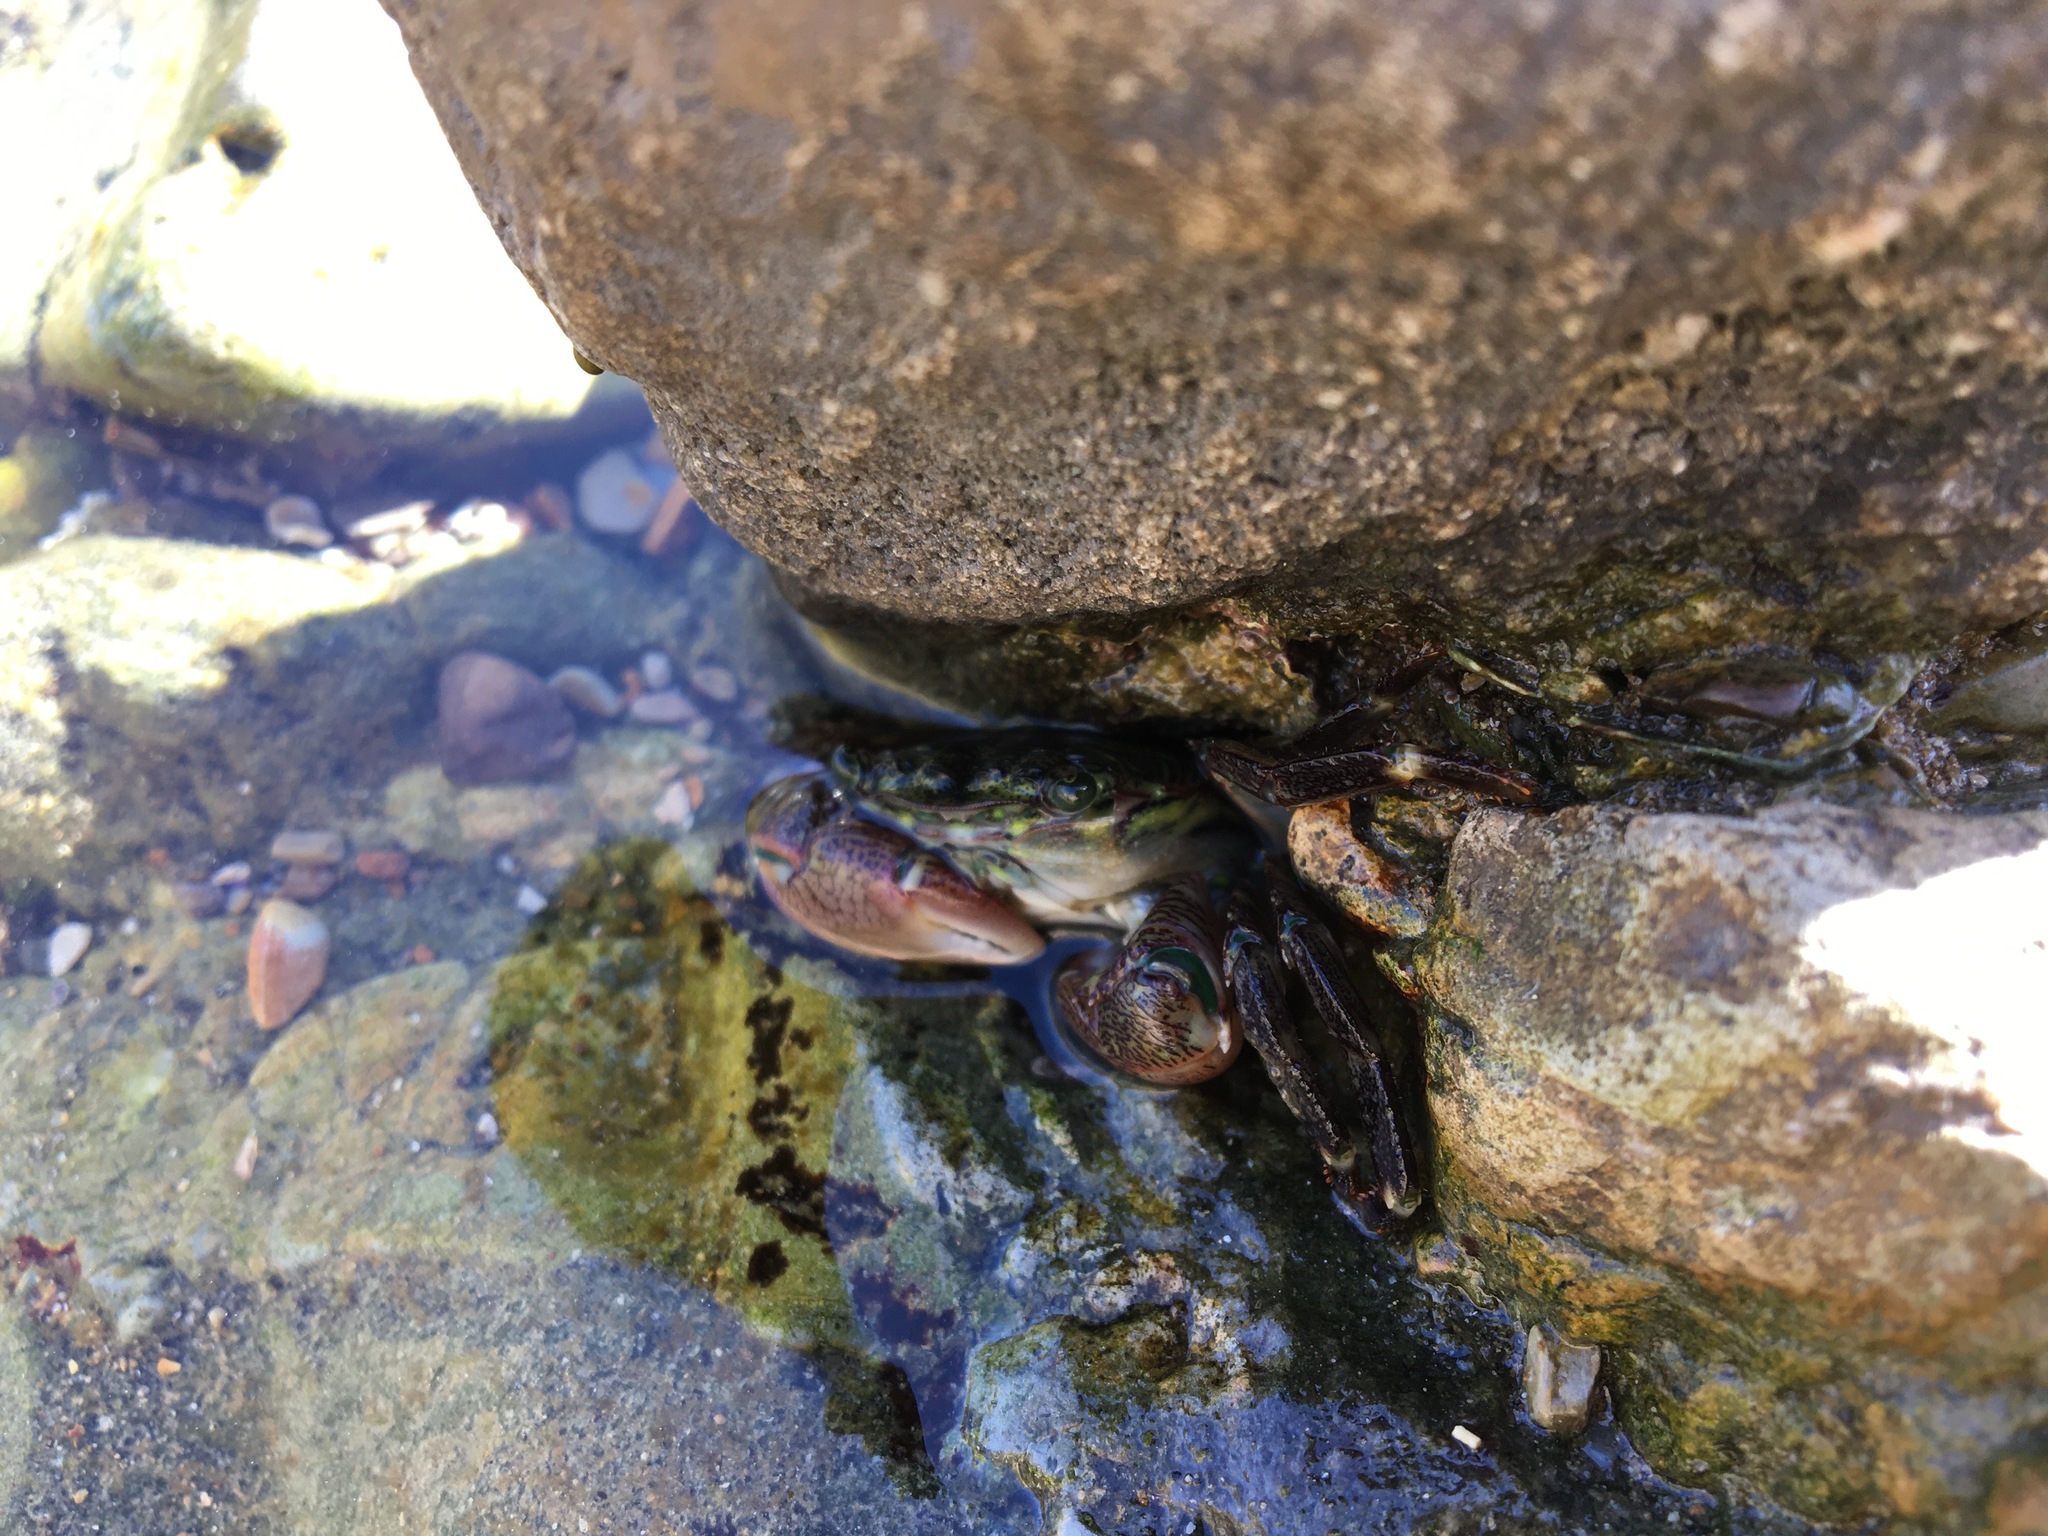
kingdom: Animalia
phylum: Arthropoda
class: Malacostraca
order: Decapoda
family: Grapsidae
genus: Pachygrapsus
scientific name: Pachygrapsus crassipes
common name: Striped shore crab
